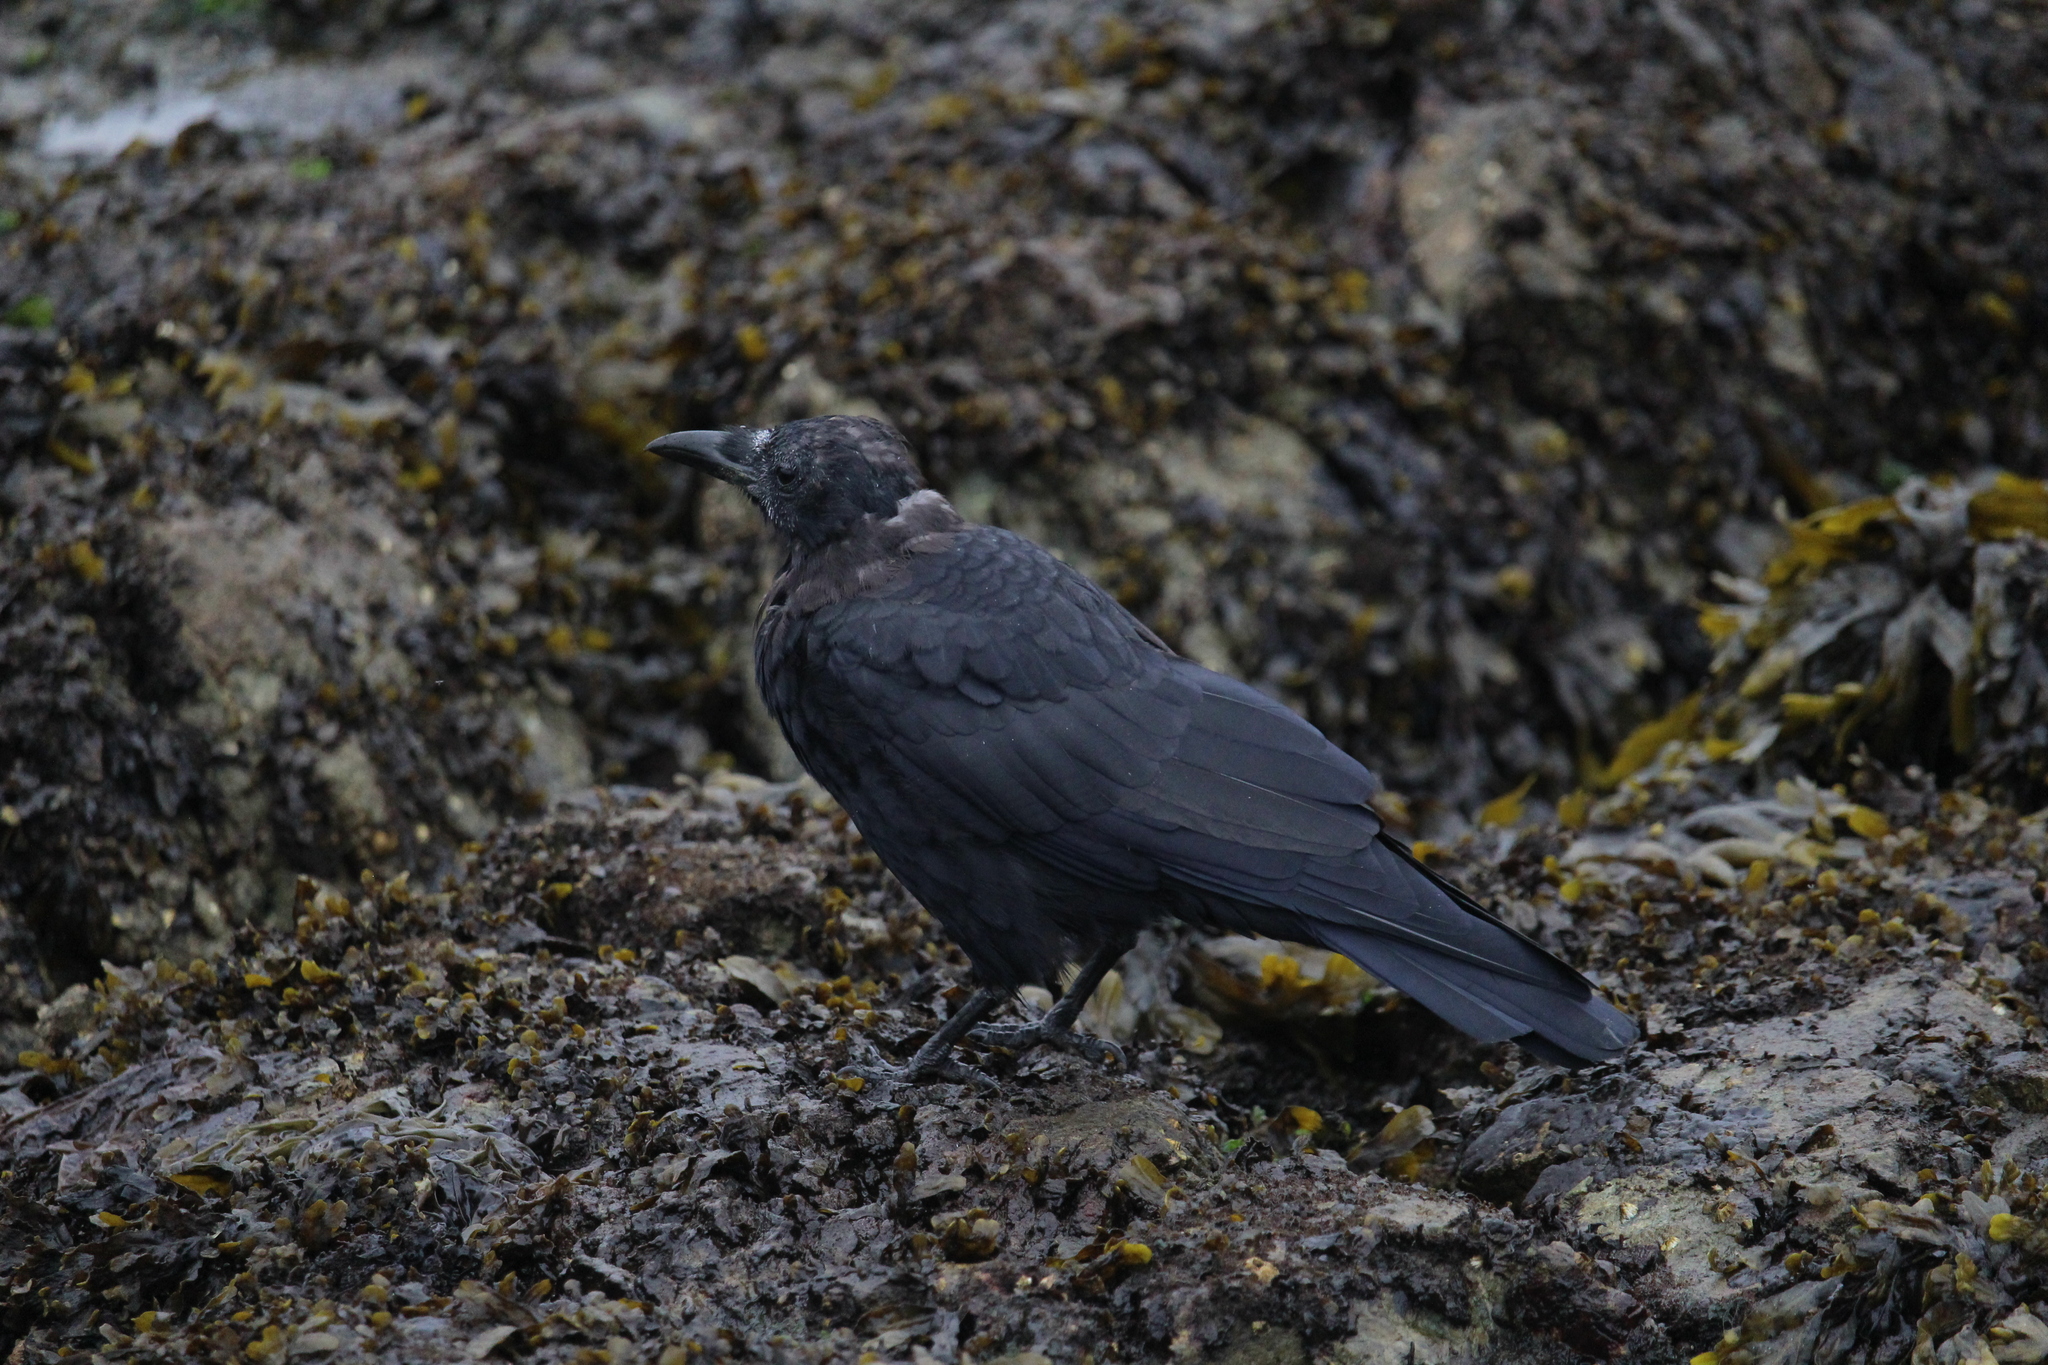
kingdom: Animalia
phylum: Chordata
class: Aves
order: Passeriformes
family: Corvidae
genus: Corvus
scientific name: Corvus brachyrhynchos
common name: American crow
